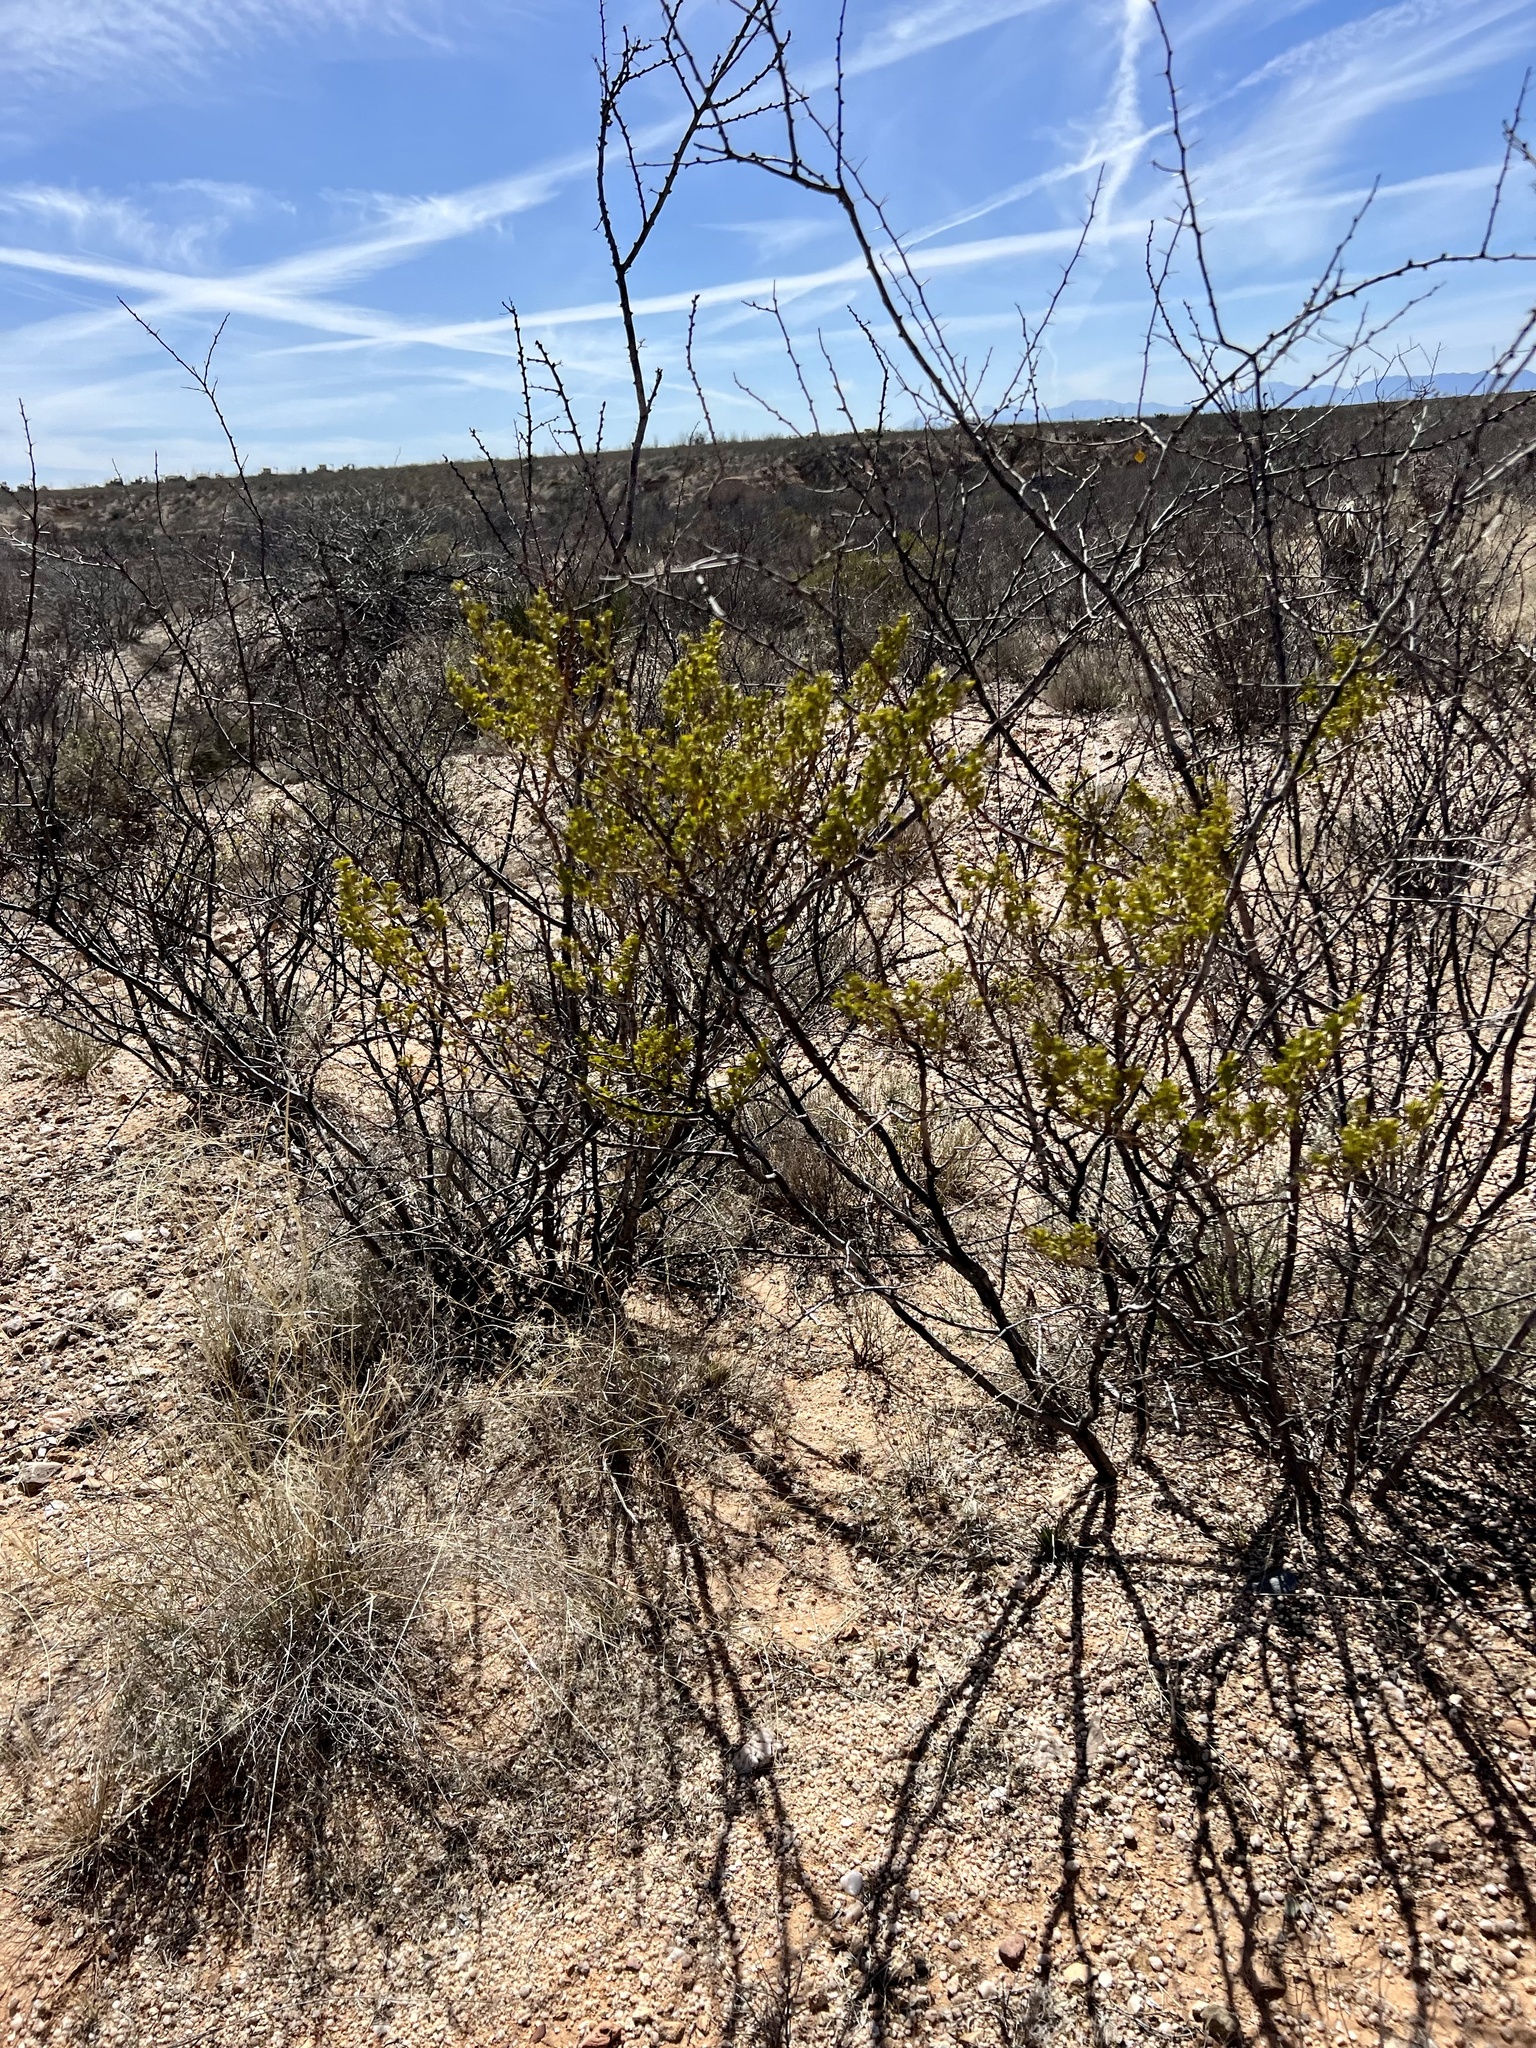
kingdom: Plantae
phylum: Tracheophyta
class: Magnoliopsida
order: Zygophyllales
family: Zygophyllaceae
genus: Larrea
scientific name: Larrea tridentata
